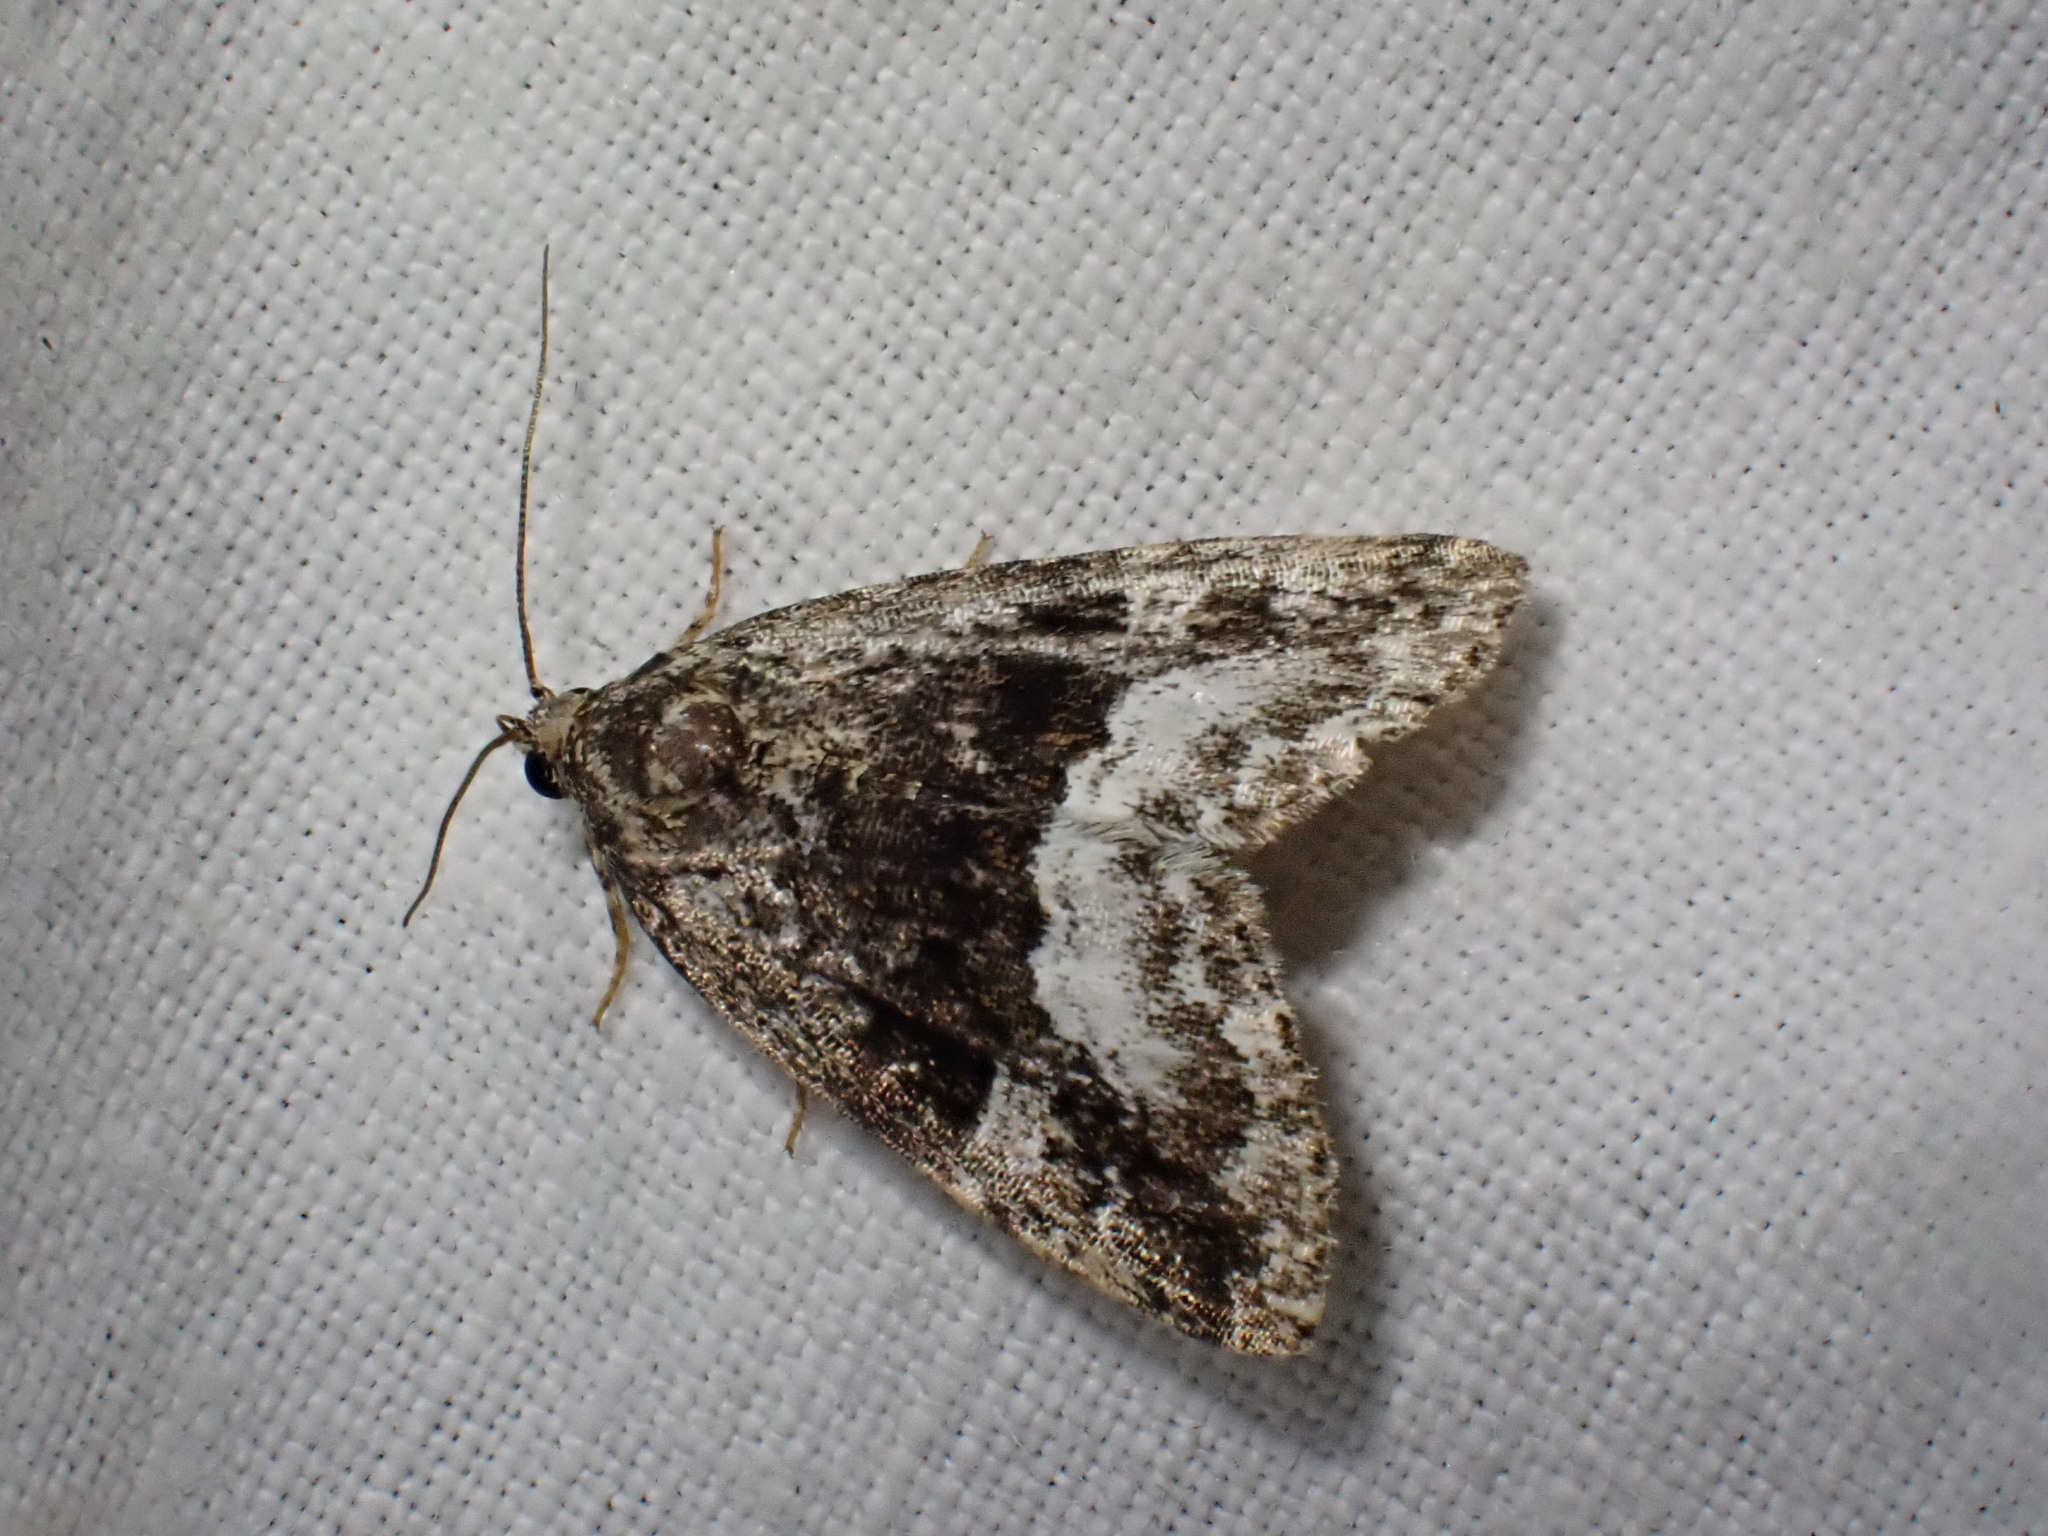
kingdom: Animalia
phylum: Arthropoda
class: Insecta
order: Lepidoptera
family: Noctuidae
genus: Deltote
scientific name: Deltote pygarga
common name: Marbled white spot
